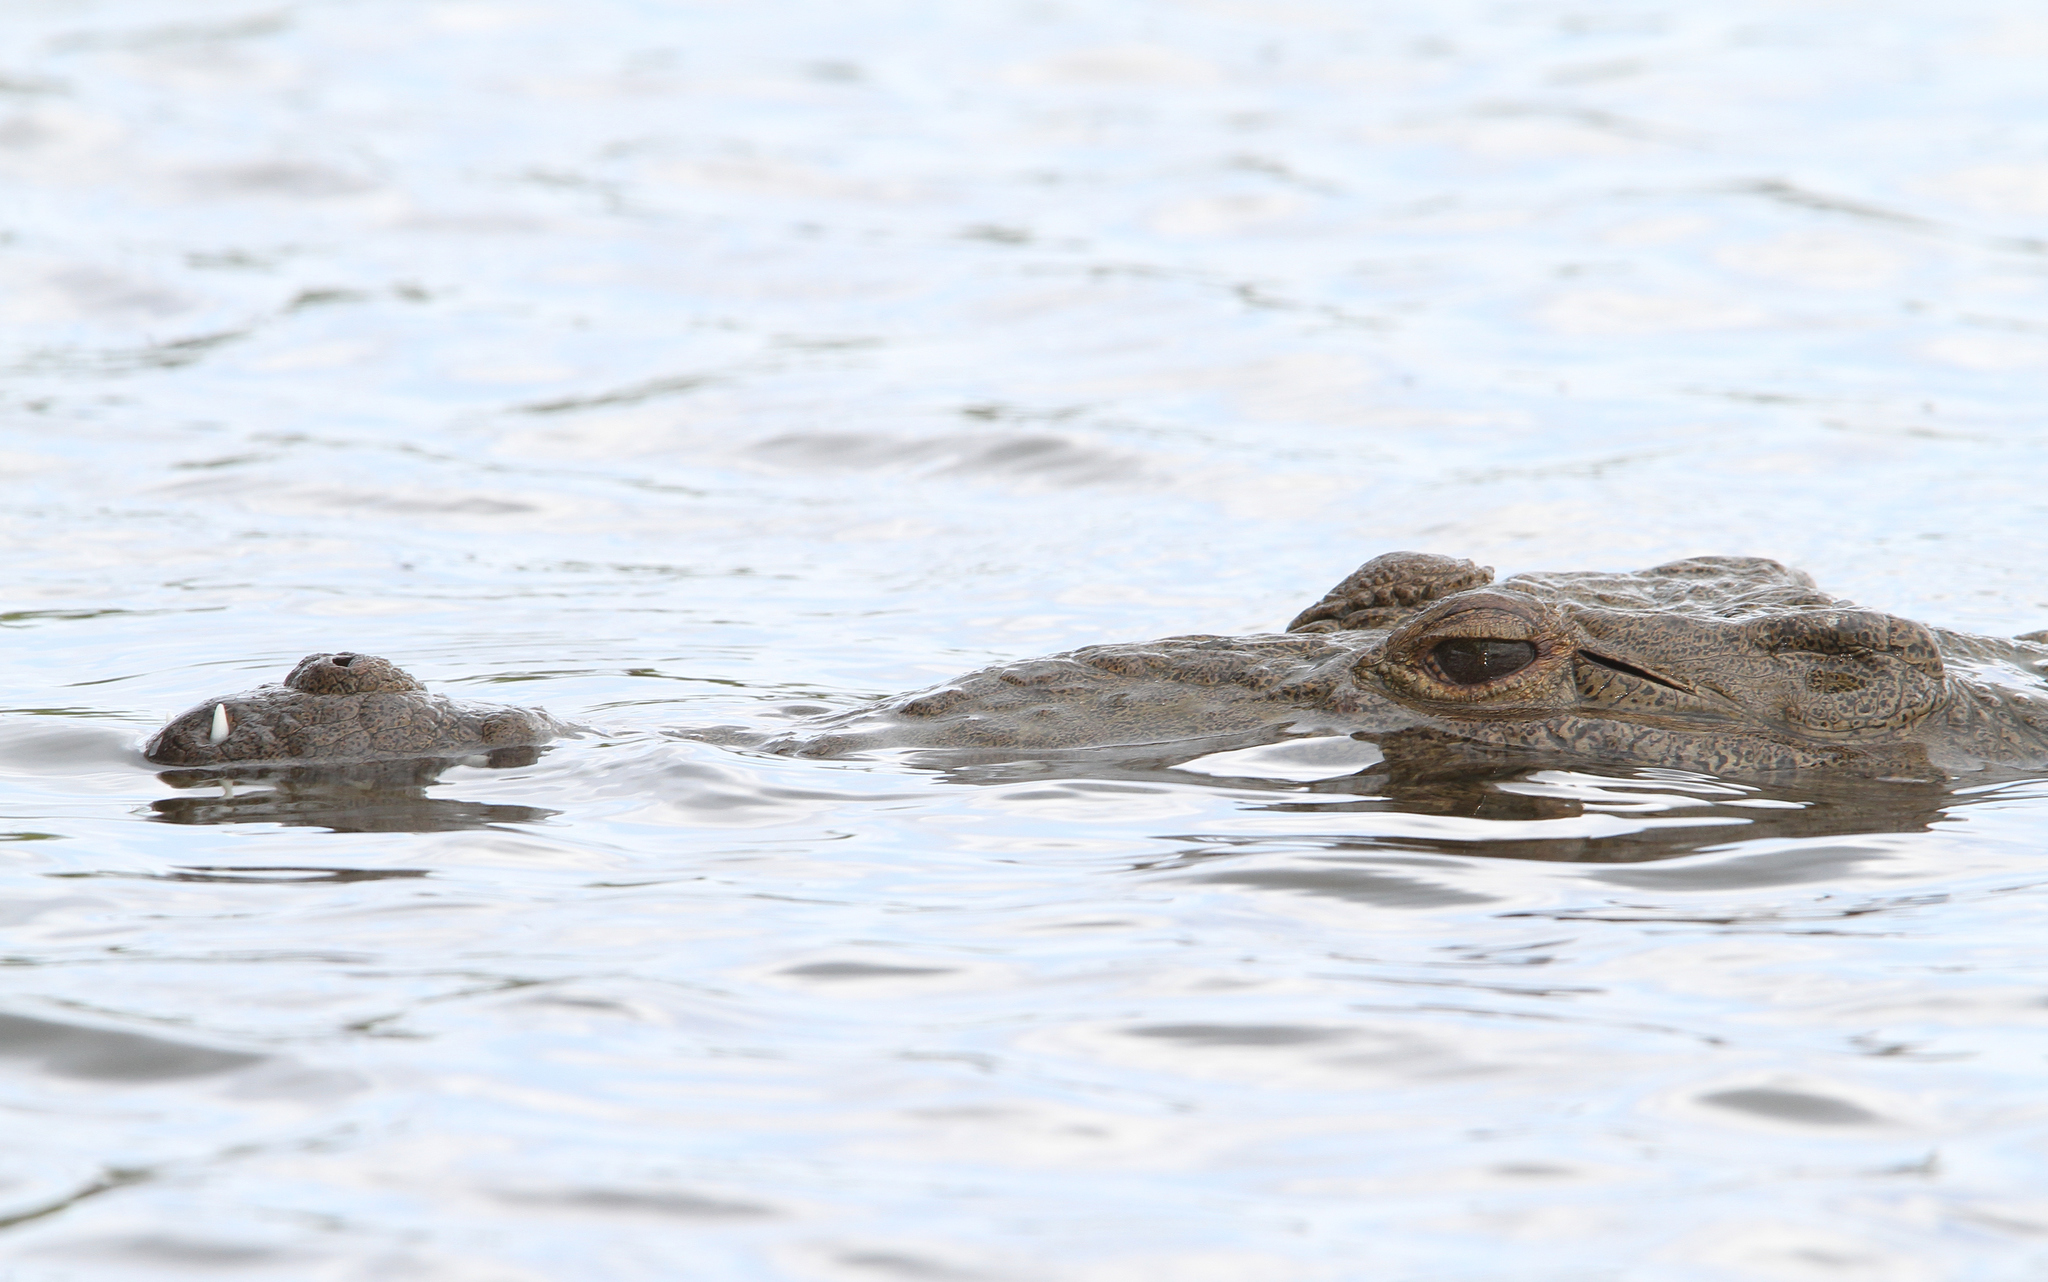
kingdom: Animalia
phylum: Chordata
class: Crocodylia
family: Crocodylidae
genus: Crocodylus
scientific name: Crocodylus acutus
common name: American crocodile
